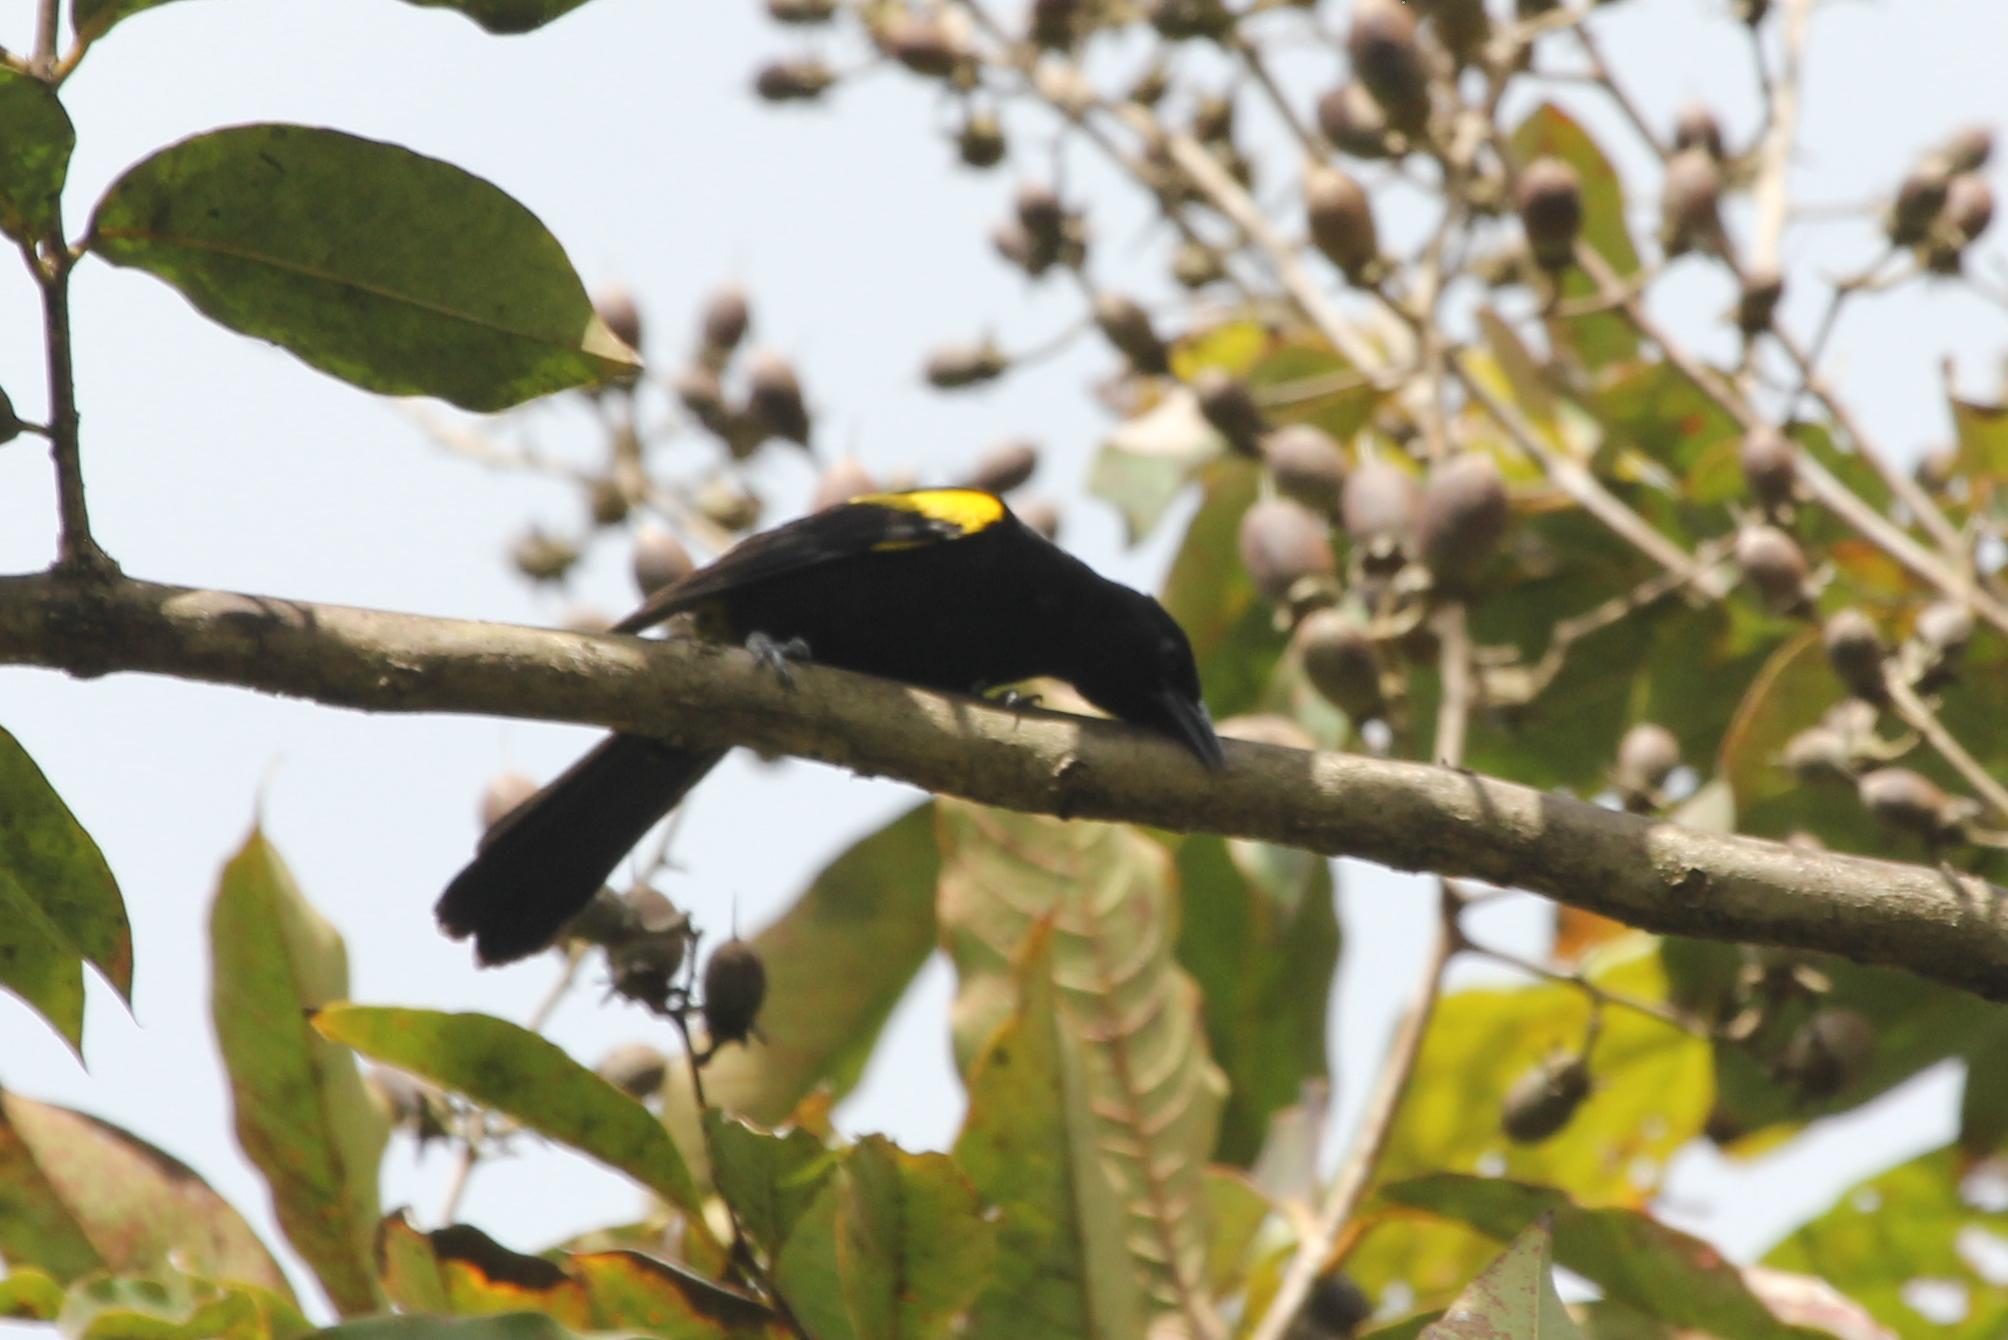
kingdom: Animalia
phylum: Chordata
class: Aves
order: Passeriformes
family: Icteridae
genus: Icterus
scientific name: Icterus portoricensis
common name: Puerto rican oriole
